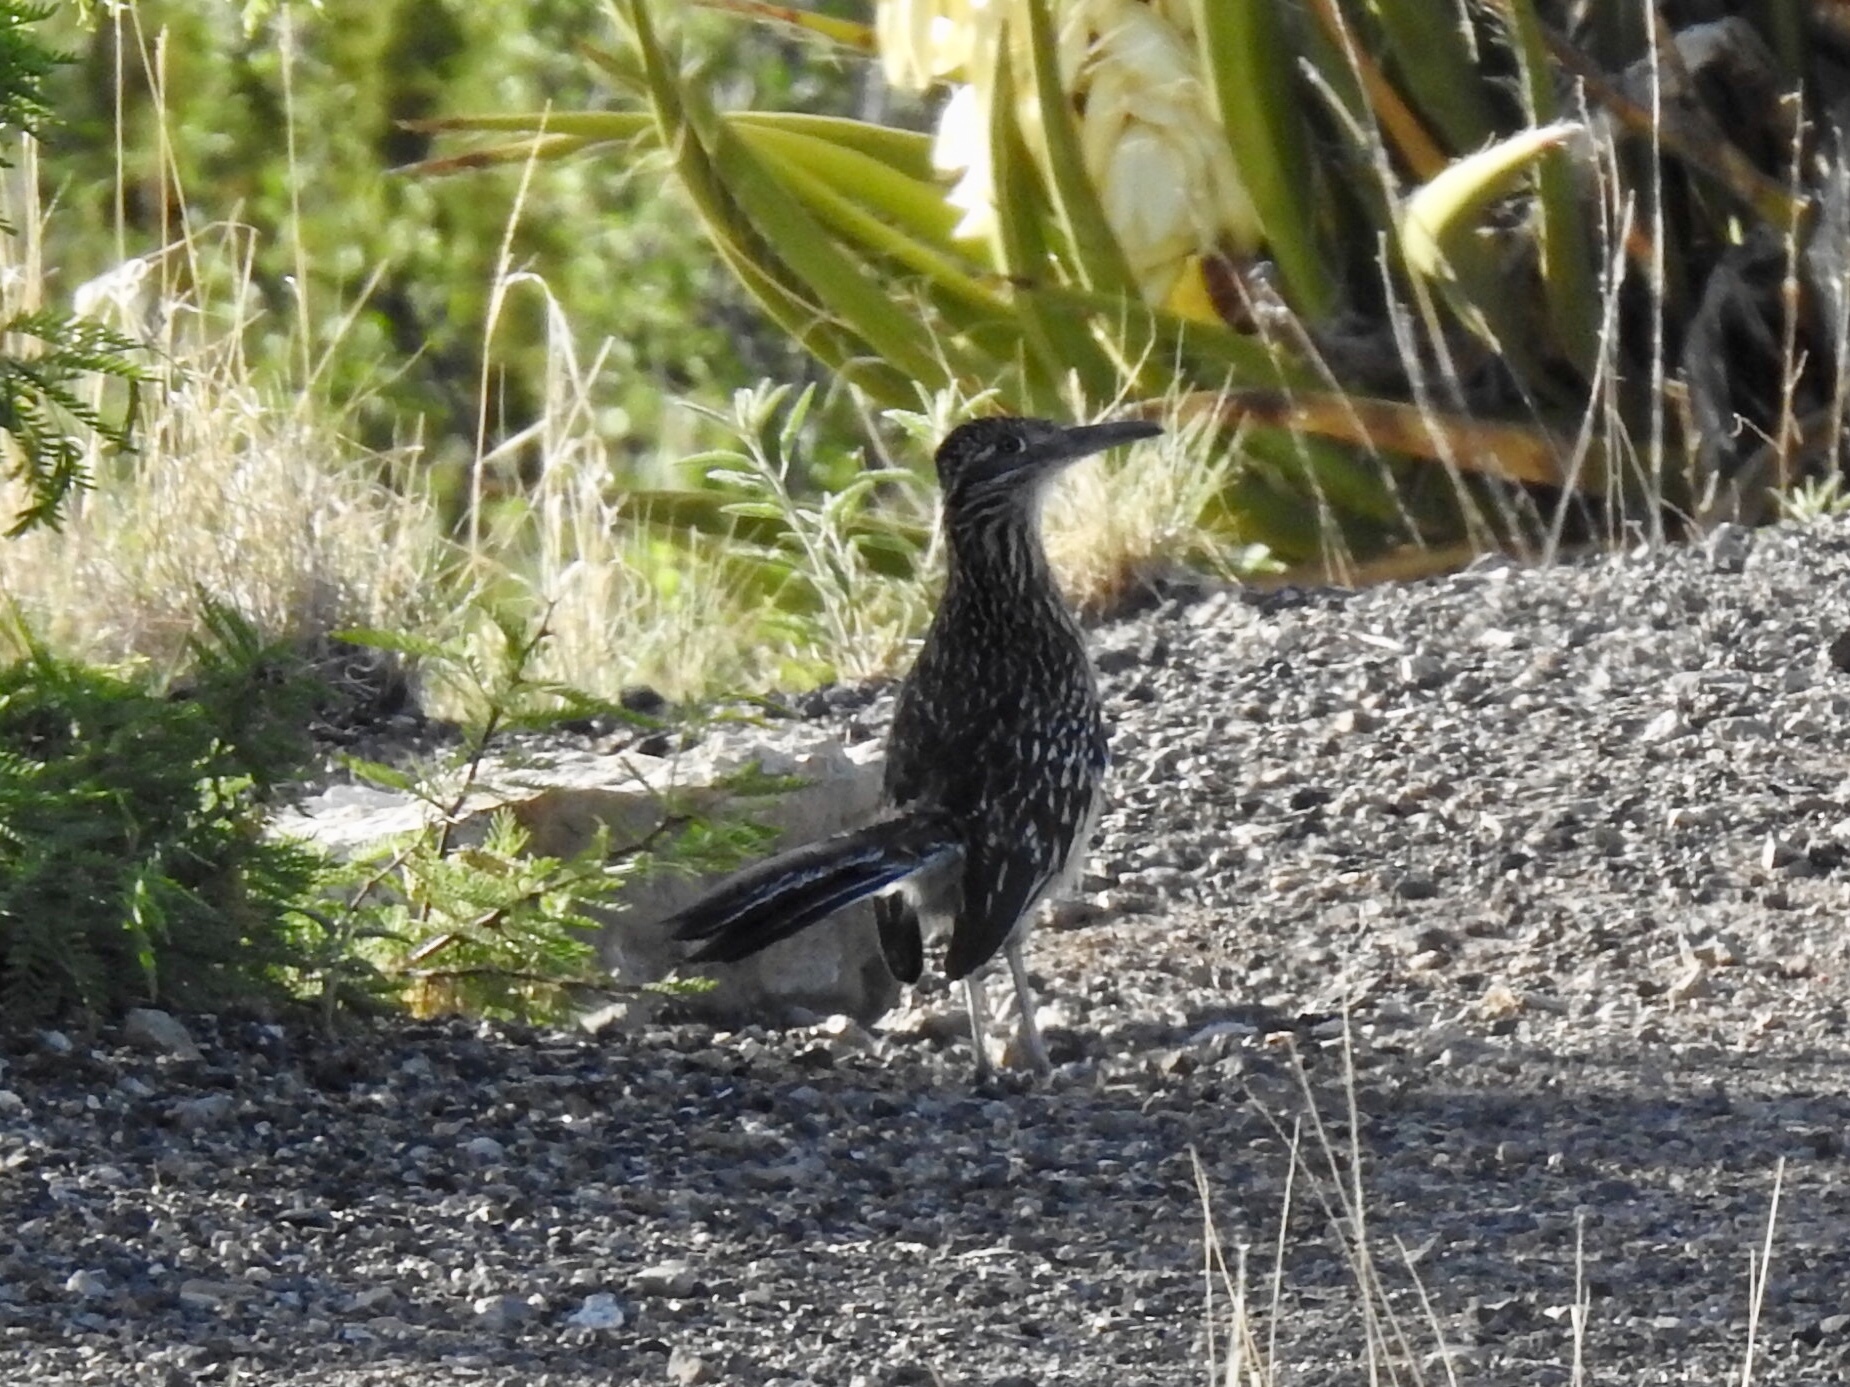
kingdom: Animalia
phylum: Chordata
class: Aves
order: Cuculiformes
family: Cuculidae
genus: Geococcyx
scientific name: Geococcyx californianus
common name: Greater roadrunner
